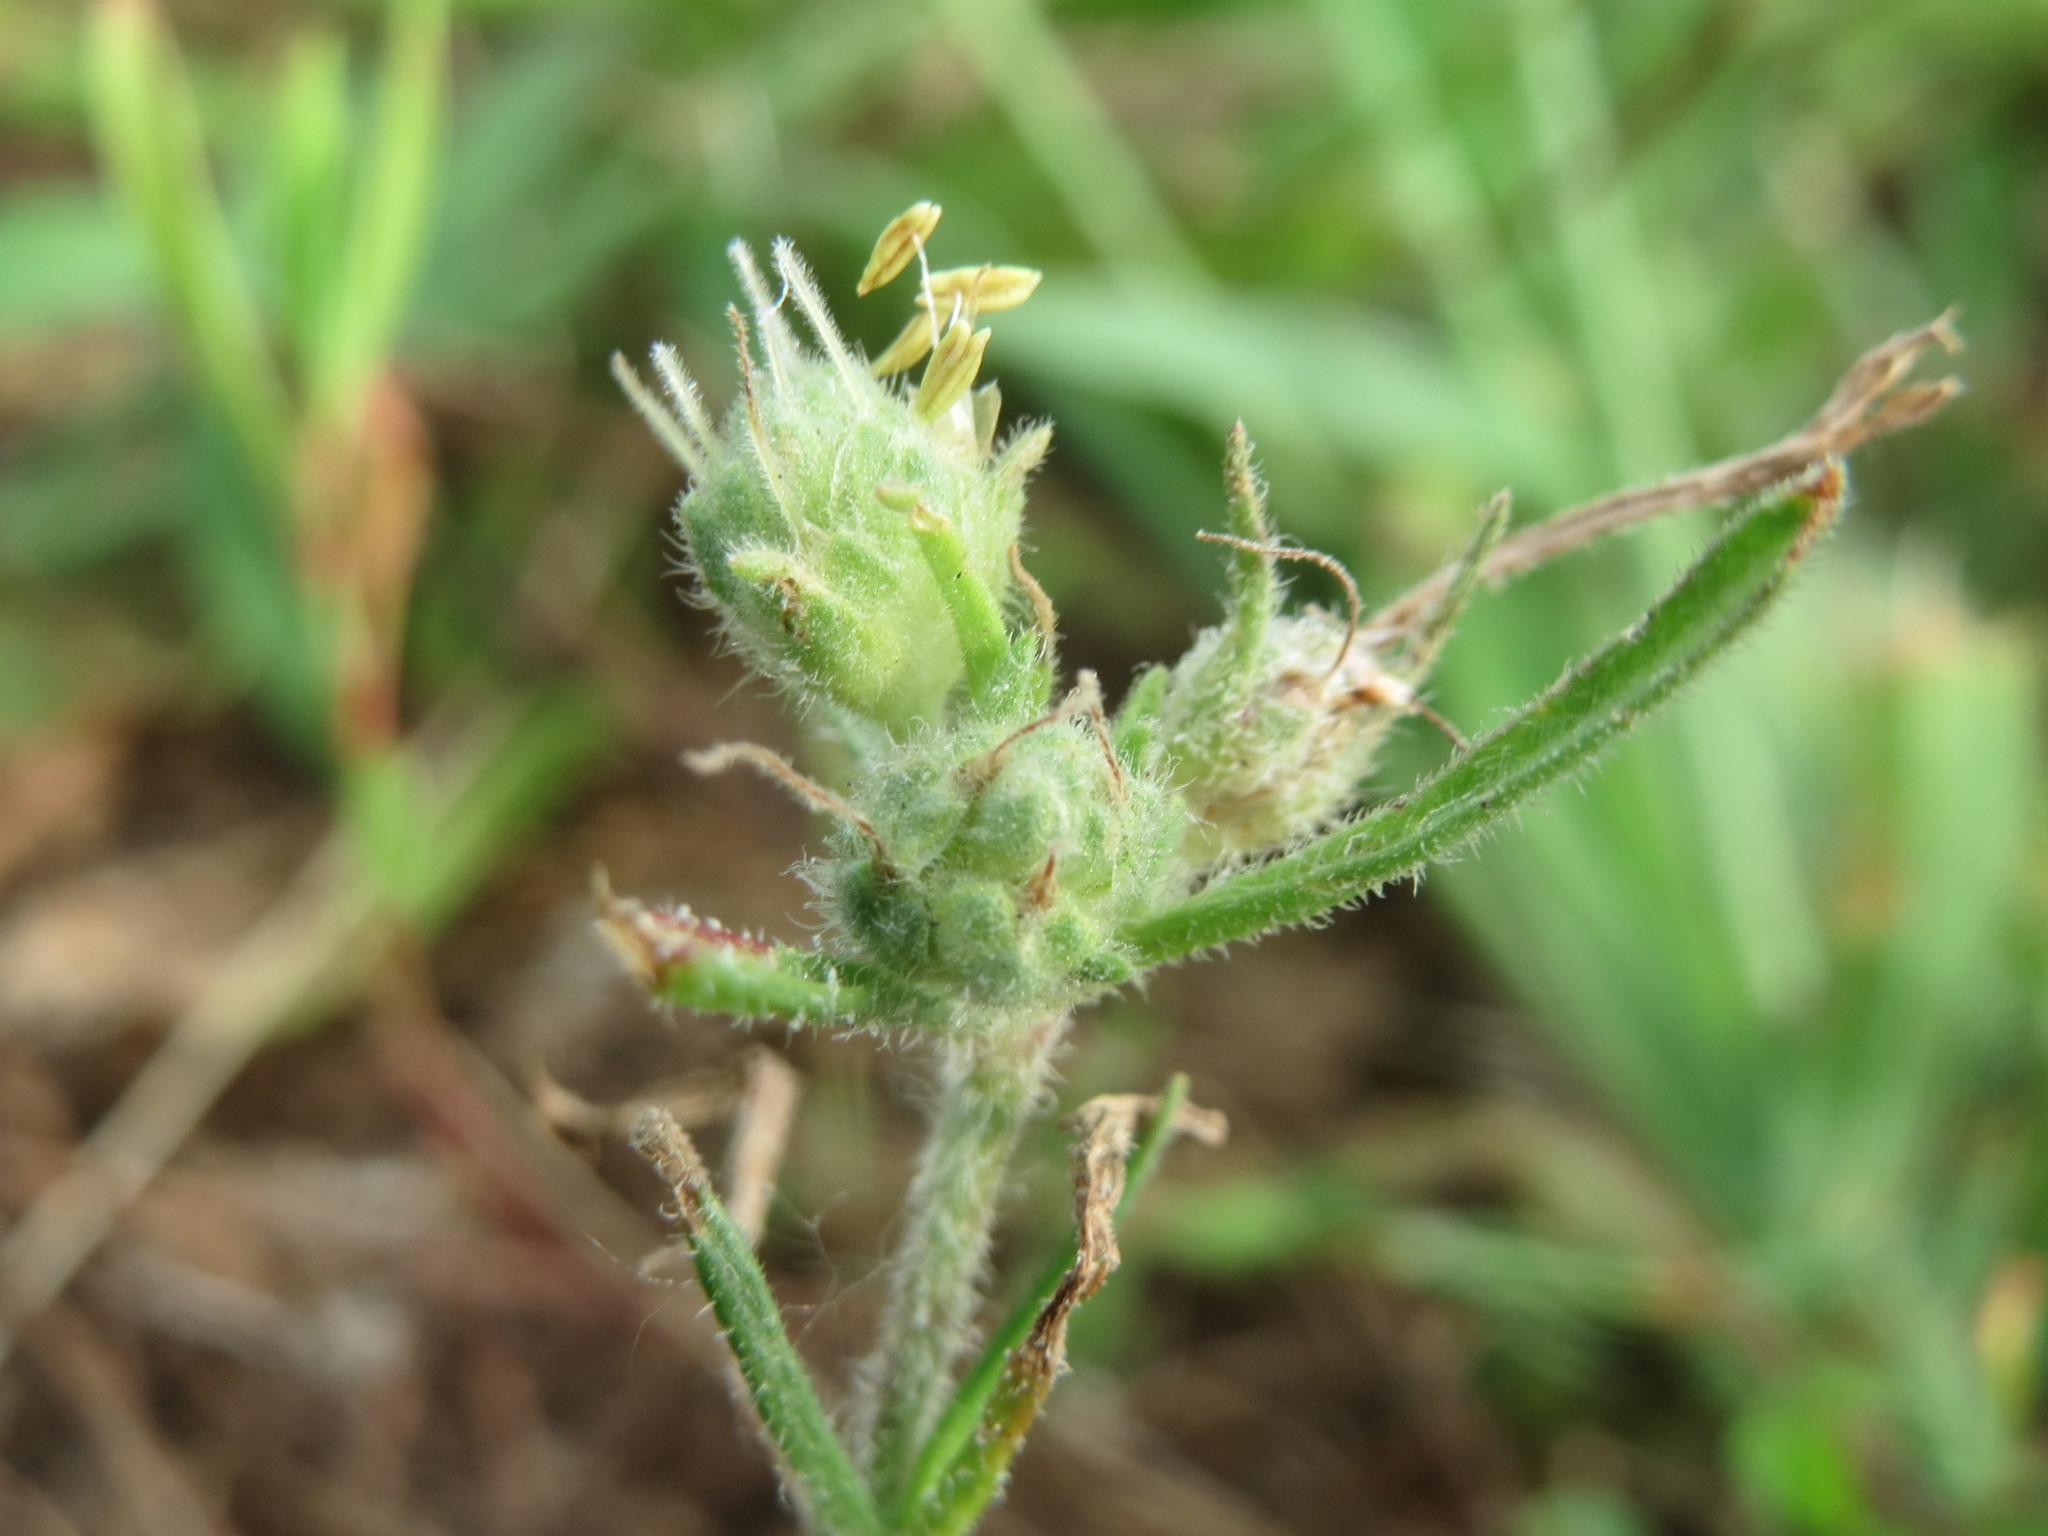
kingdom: Plantae
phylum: Tracheophyta
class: Magnoliopsida
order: Lamiales
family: Plantaginaceae
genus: Plantago
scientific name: Plantago arenaria
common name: Branched plantain
